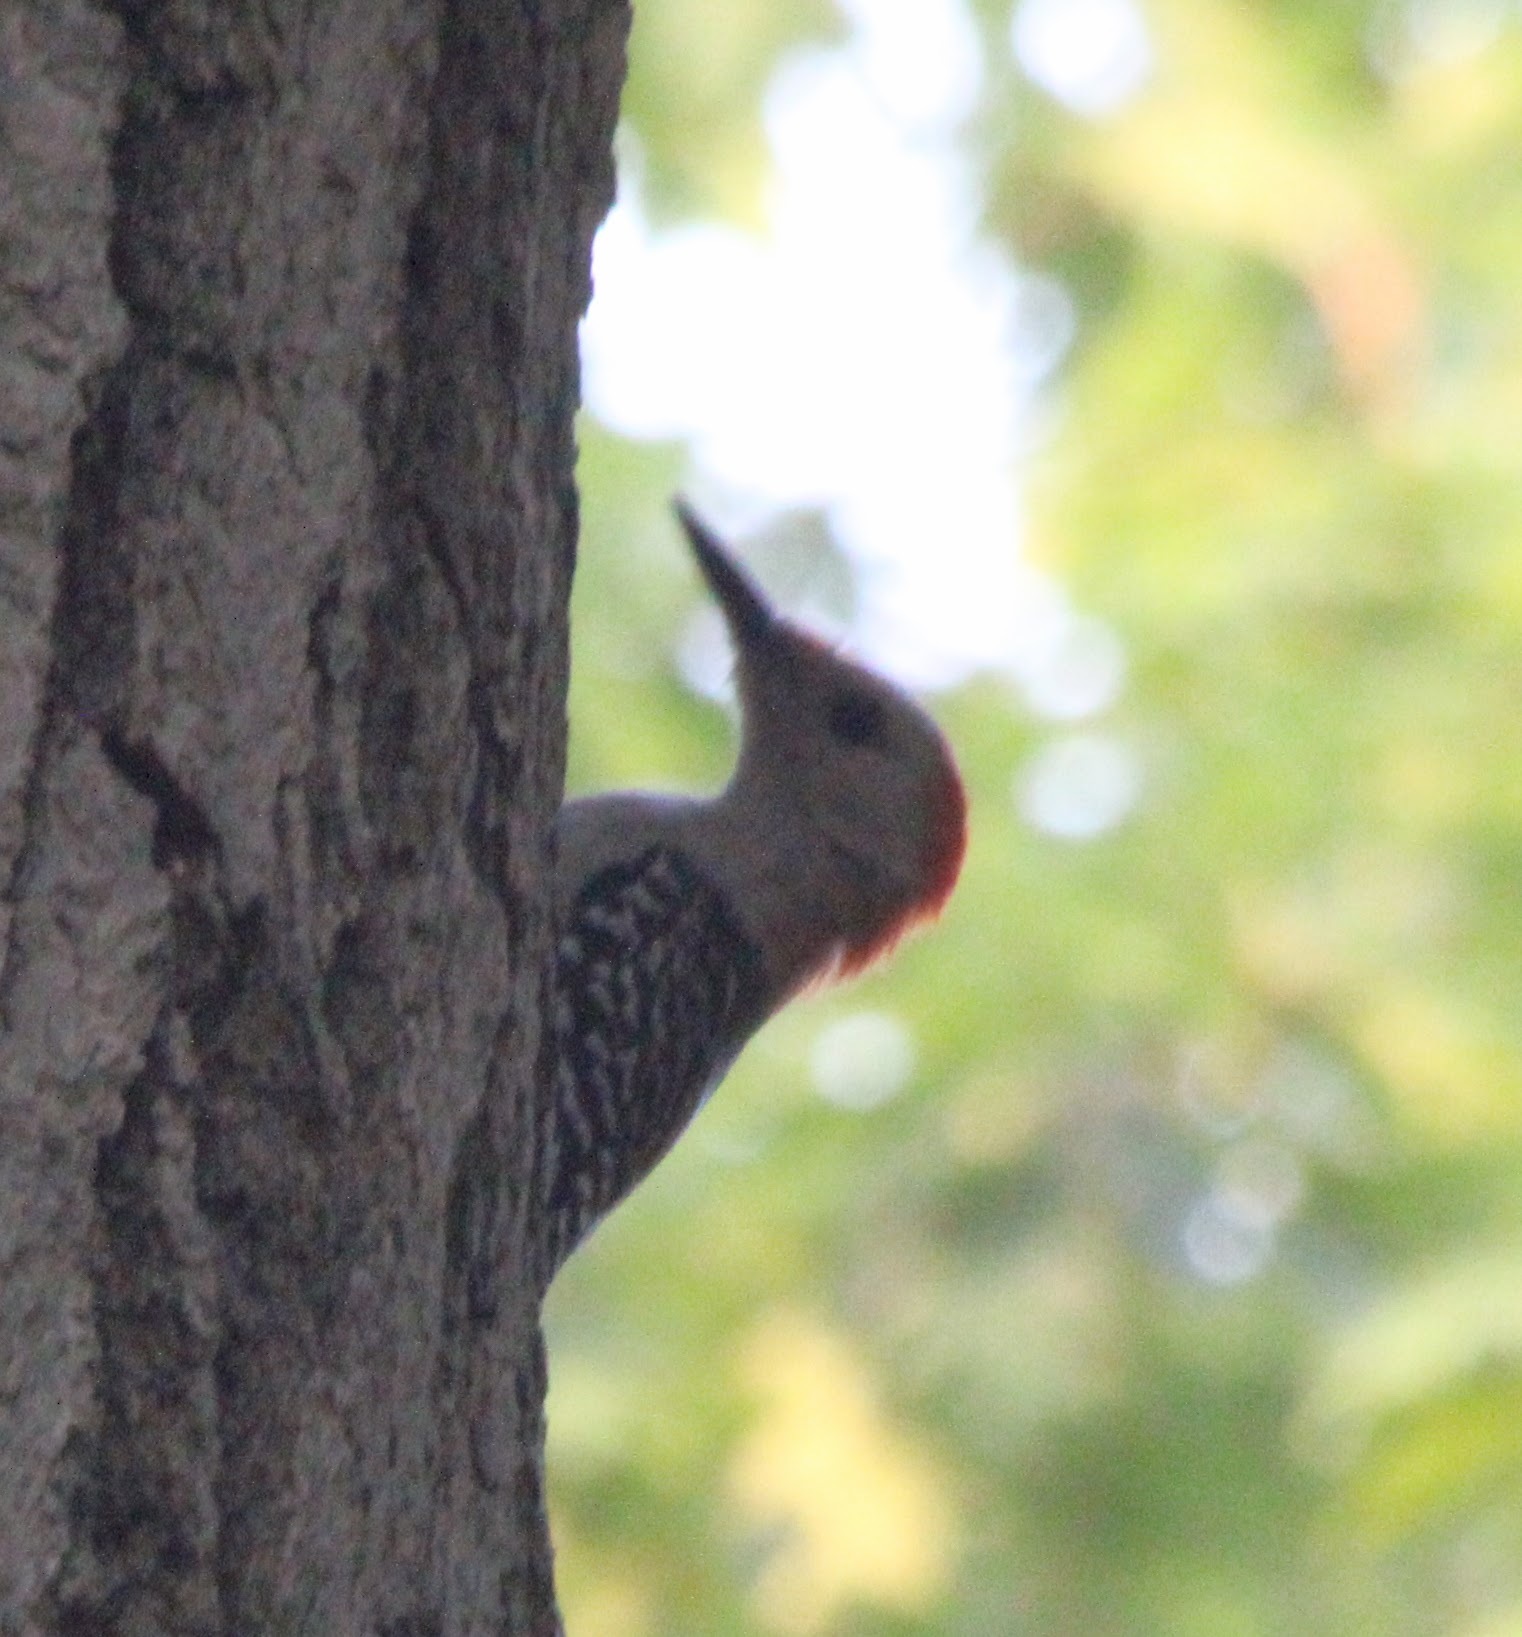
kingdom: Animalia
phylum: Chordata
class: Aves
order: Piciformes
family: Picidae
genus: Melanerpes
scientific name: Melanerpes carolinus
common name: Red-bellied woodpecker
